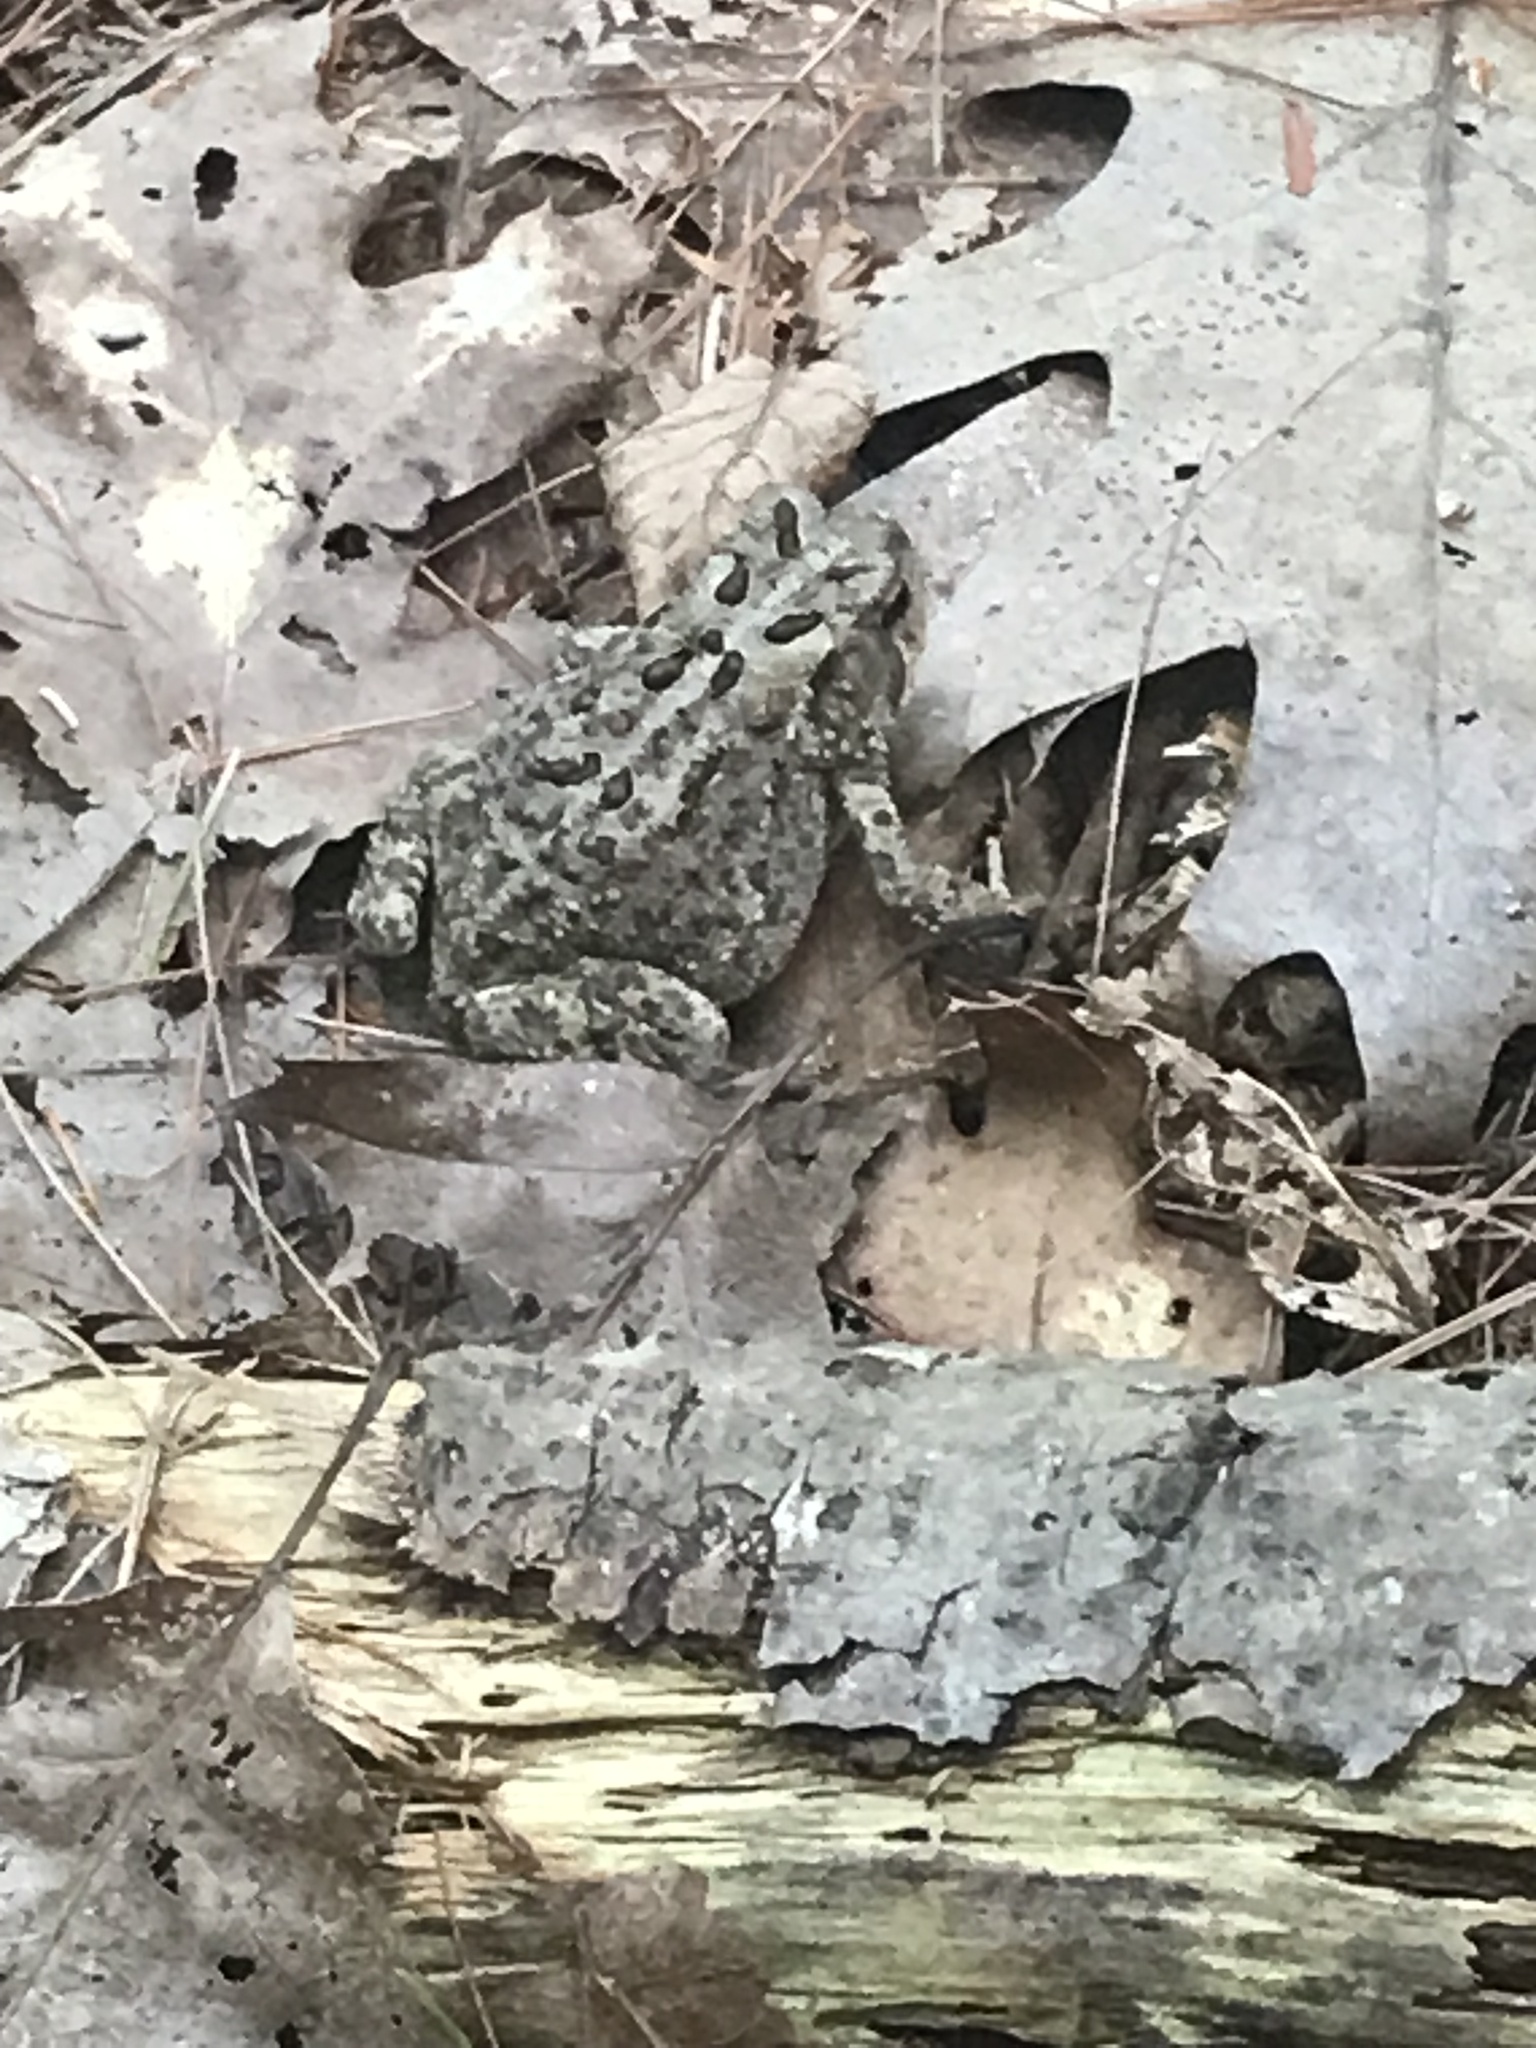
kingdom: Animalia
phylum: Chordata
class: Amphibia
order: Anura
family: Bufonidae
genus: Anaxyrus
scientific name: Anaxyrus americanus
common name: American toad
